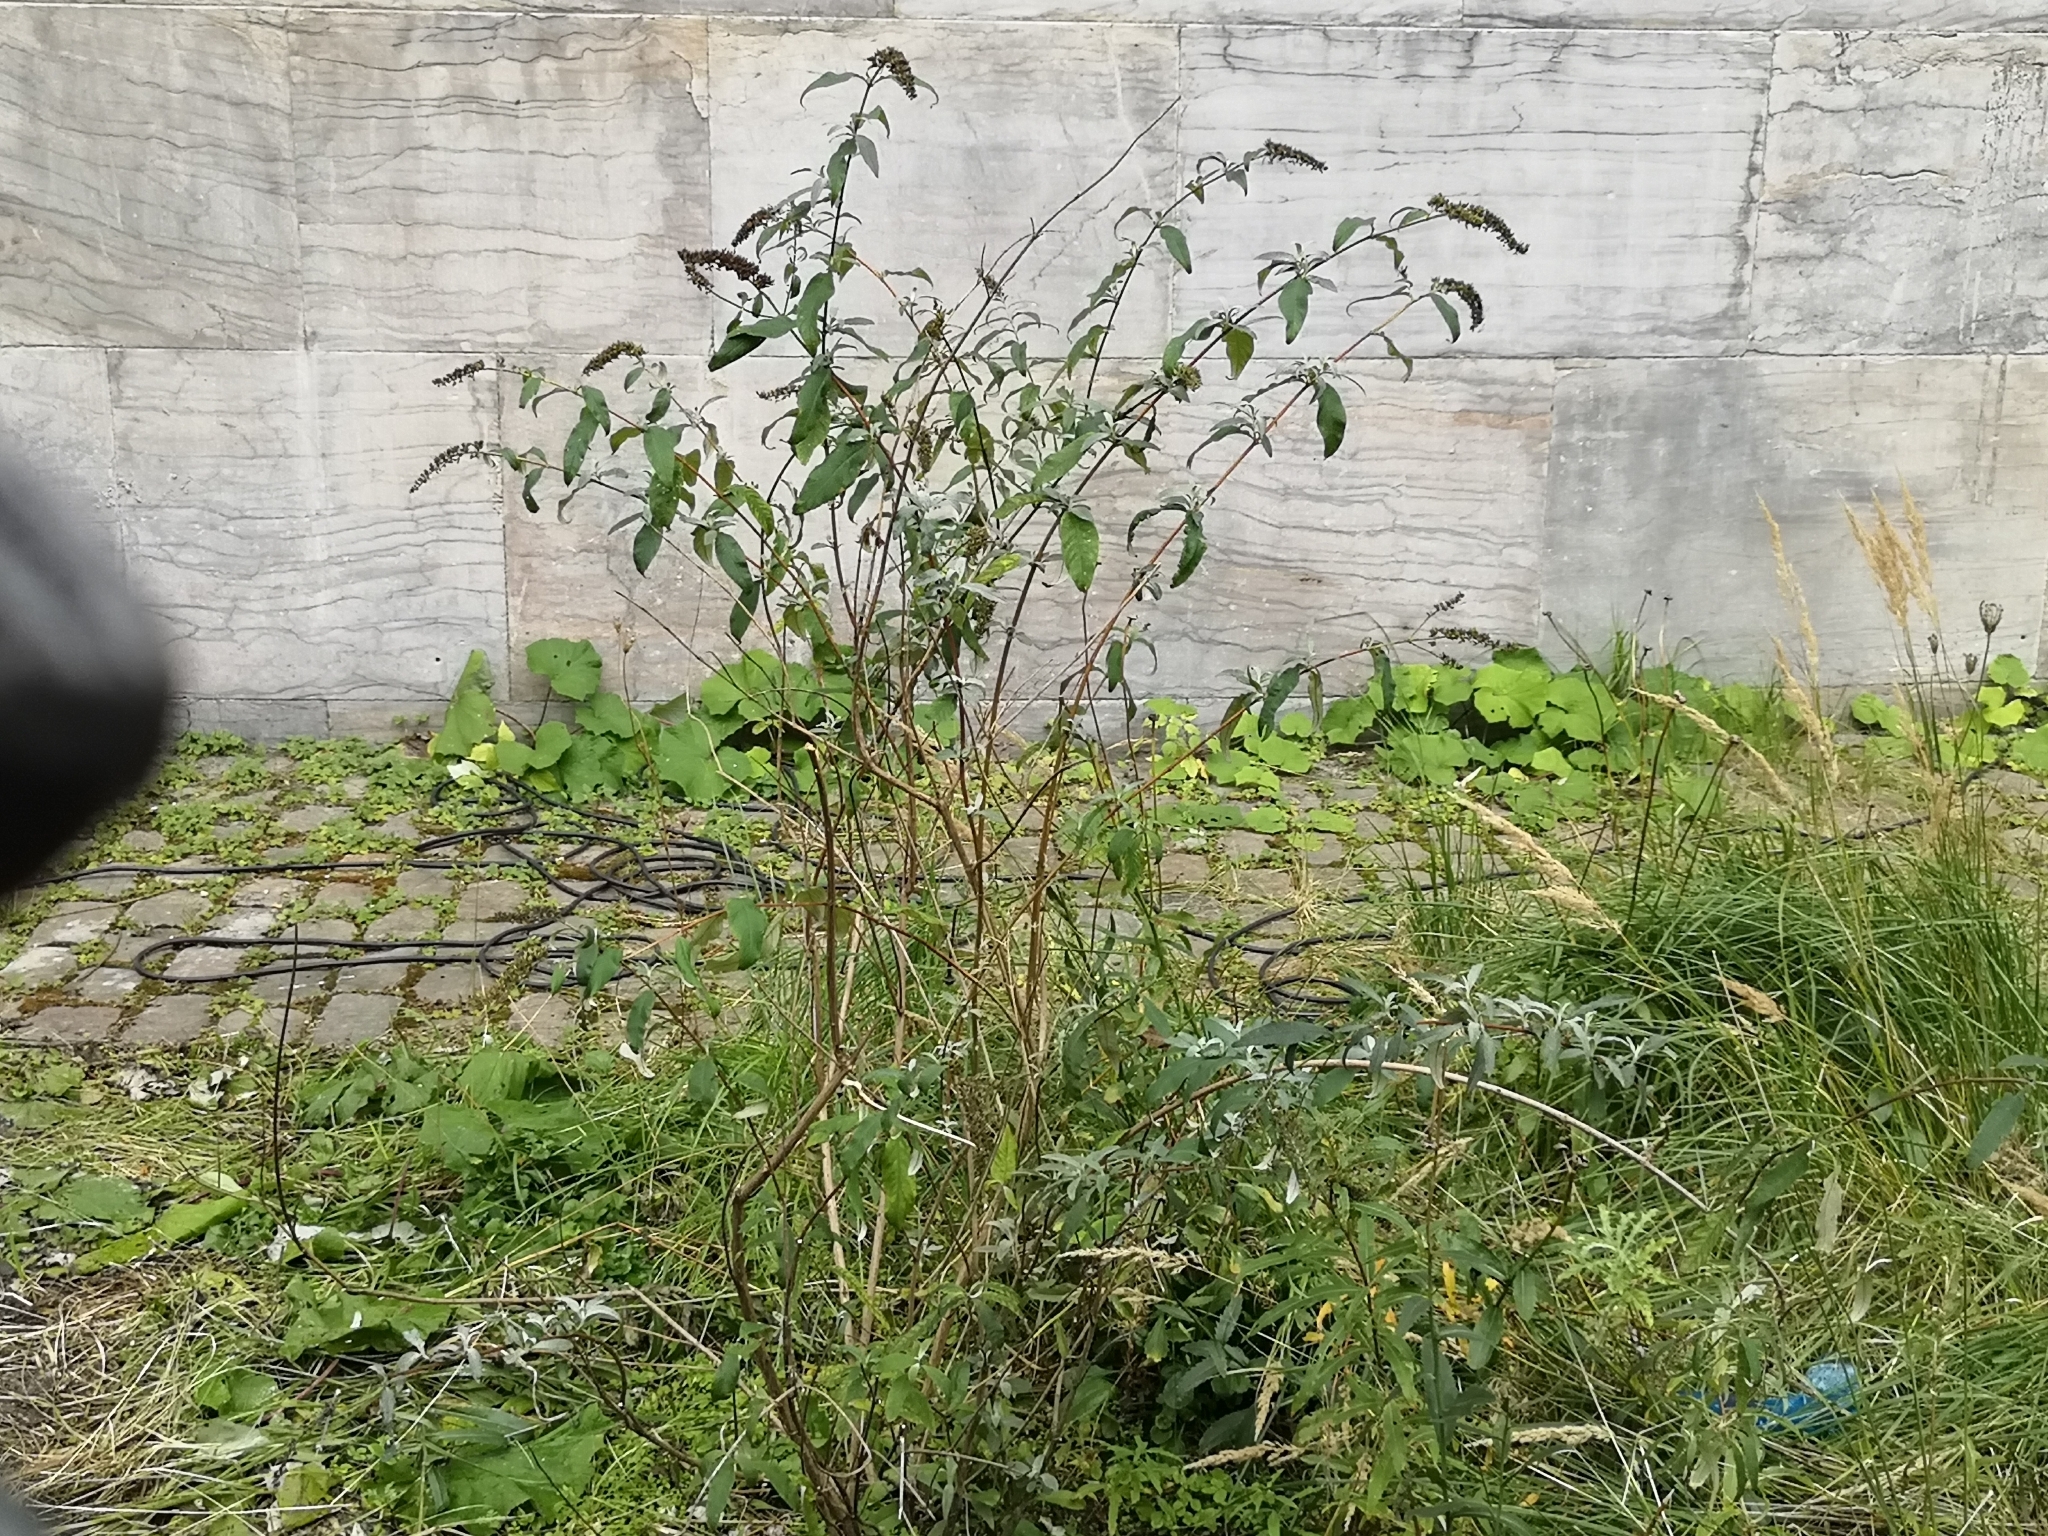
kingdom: Plantae
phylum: Tracheophyta
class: Magnoliopsida
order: Lamiales
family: Scrophulariaceae
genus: Buddleja
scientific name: Buddleja davidii
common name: Butterfly-bush
